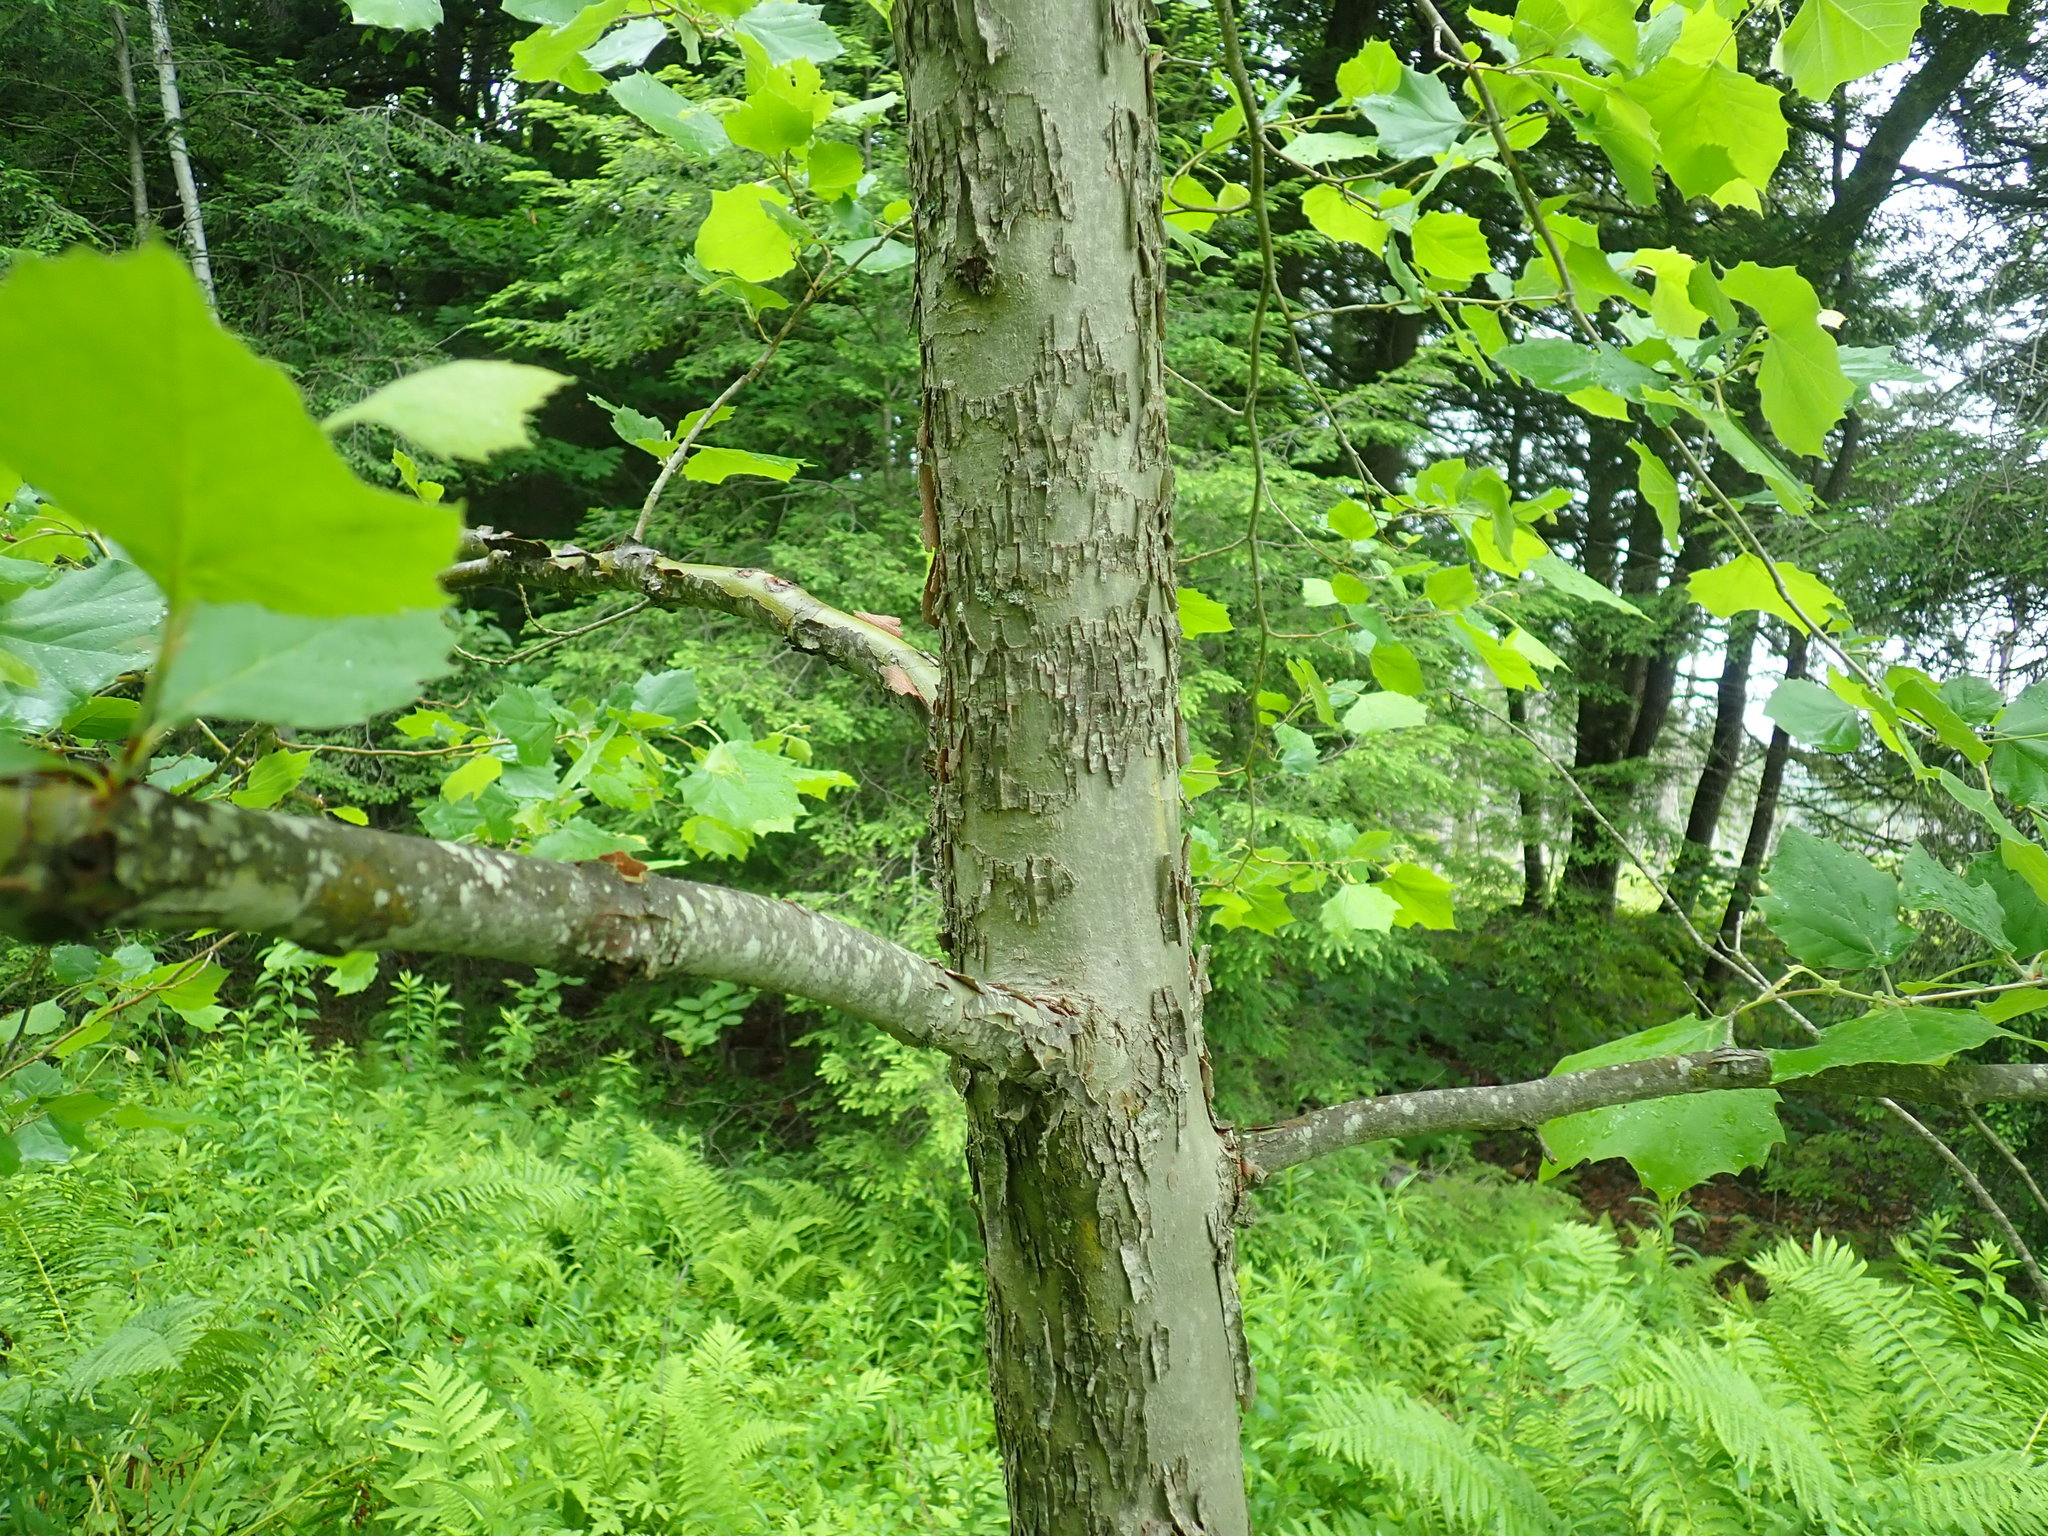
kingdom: Plantae
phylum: Tracheophyta
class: Magnoliopsida
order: Proteales
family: Platanaceae
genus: Platanus
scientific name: Platanus occidentalis
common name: American sycamore
